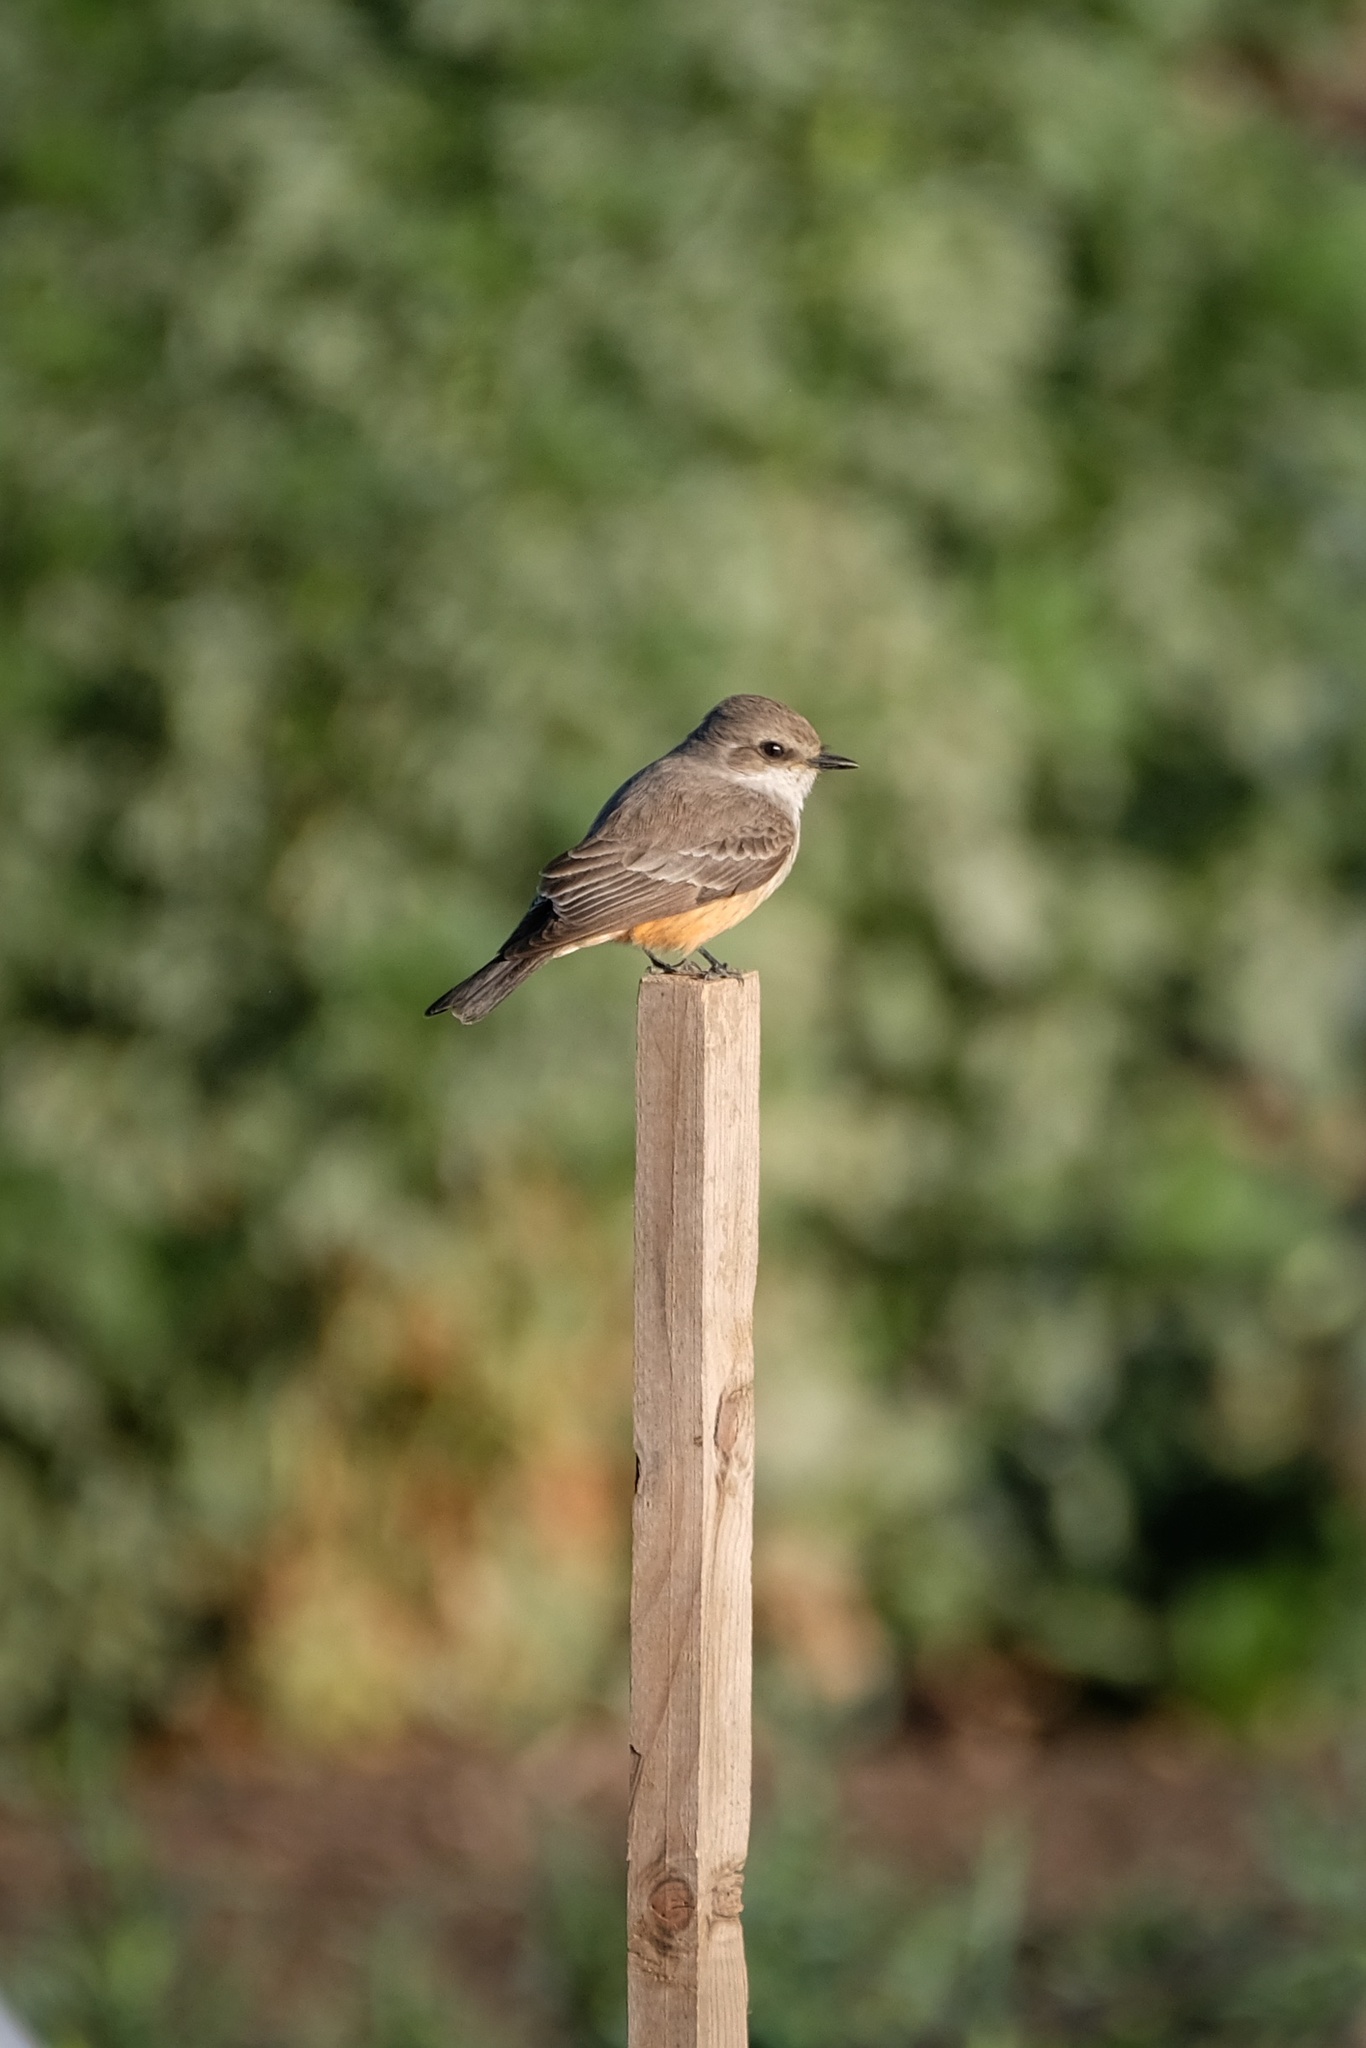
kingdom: Animalia
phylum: Chordata
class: Aves
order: Passeriformes
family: Tyrannidae
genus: Pyrocephalus
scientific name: Pyrocephalus rubinus
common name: Vermilion flycatcher
